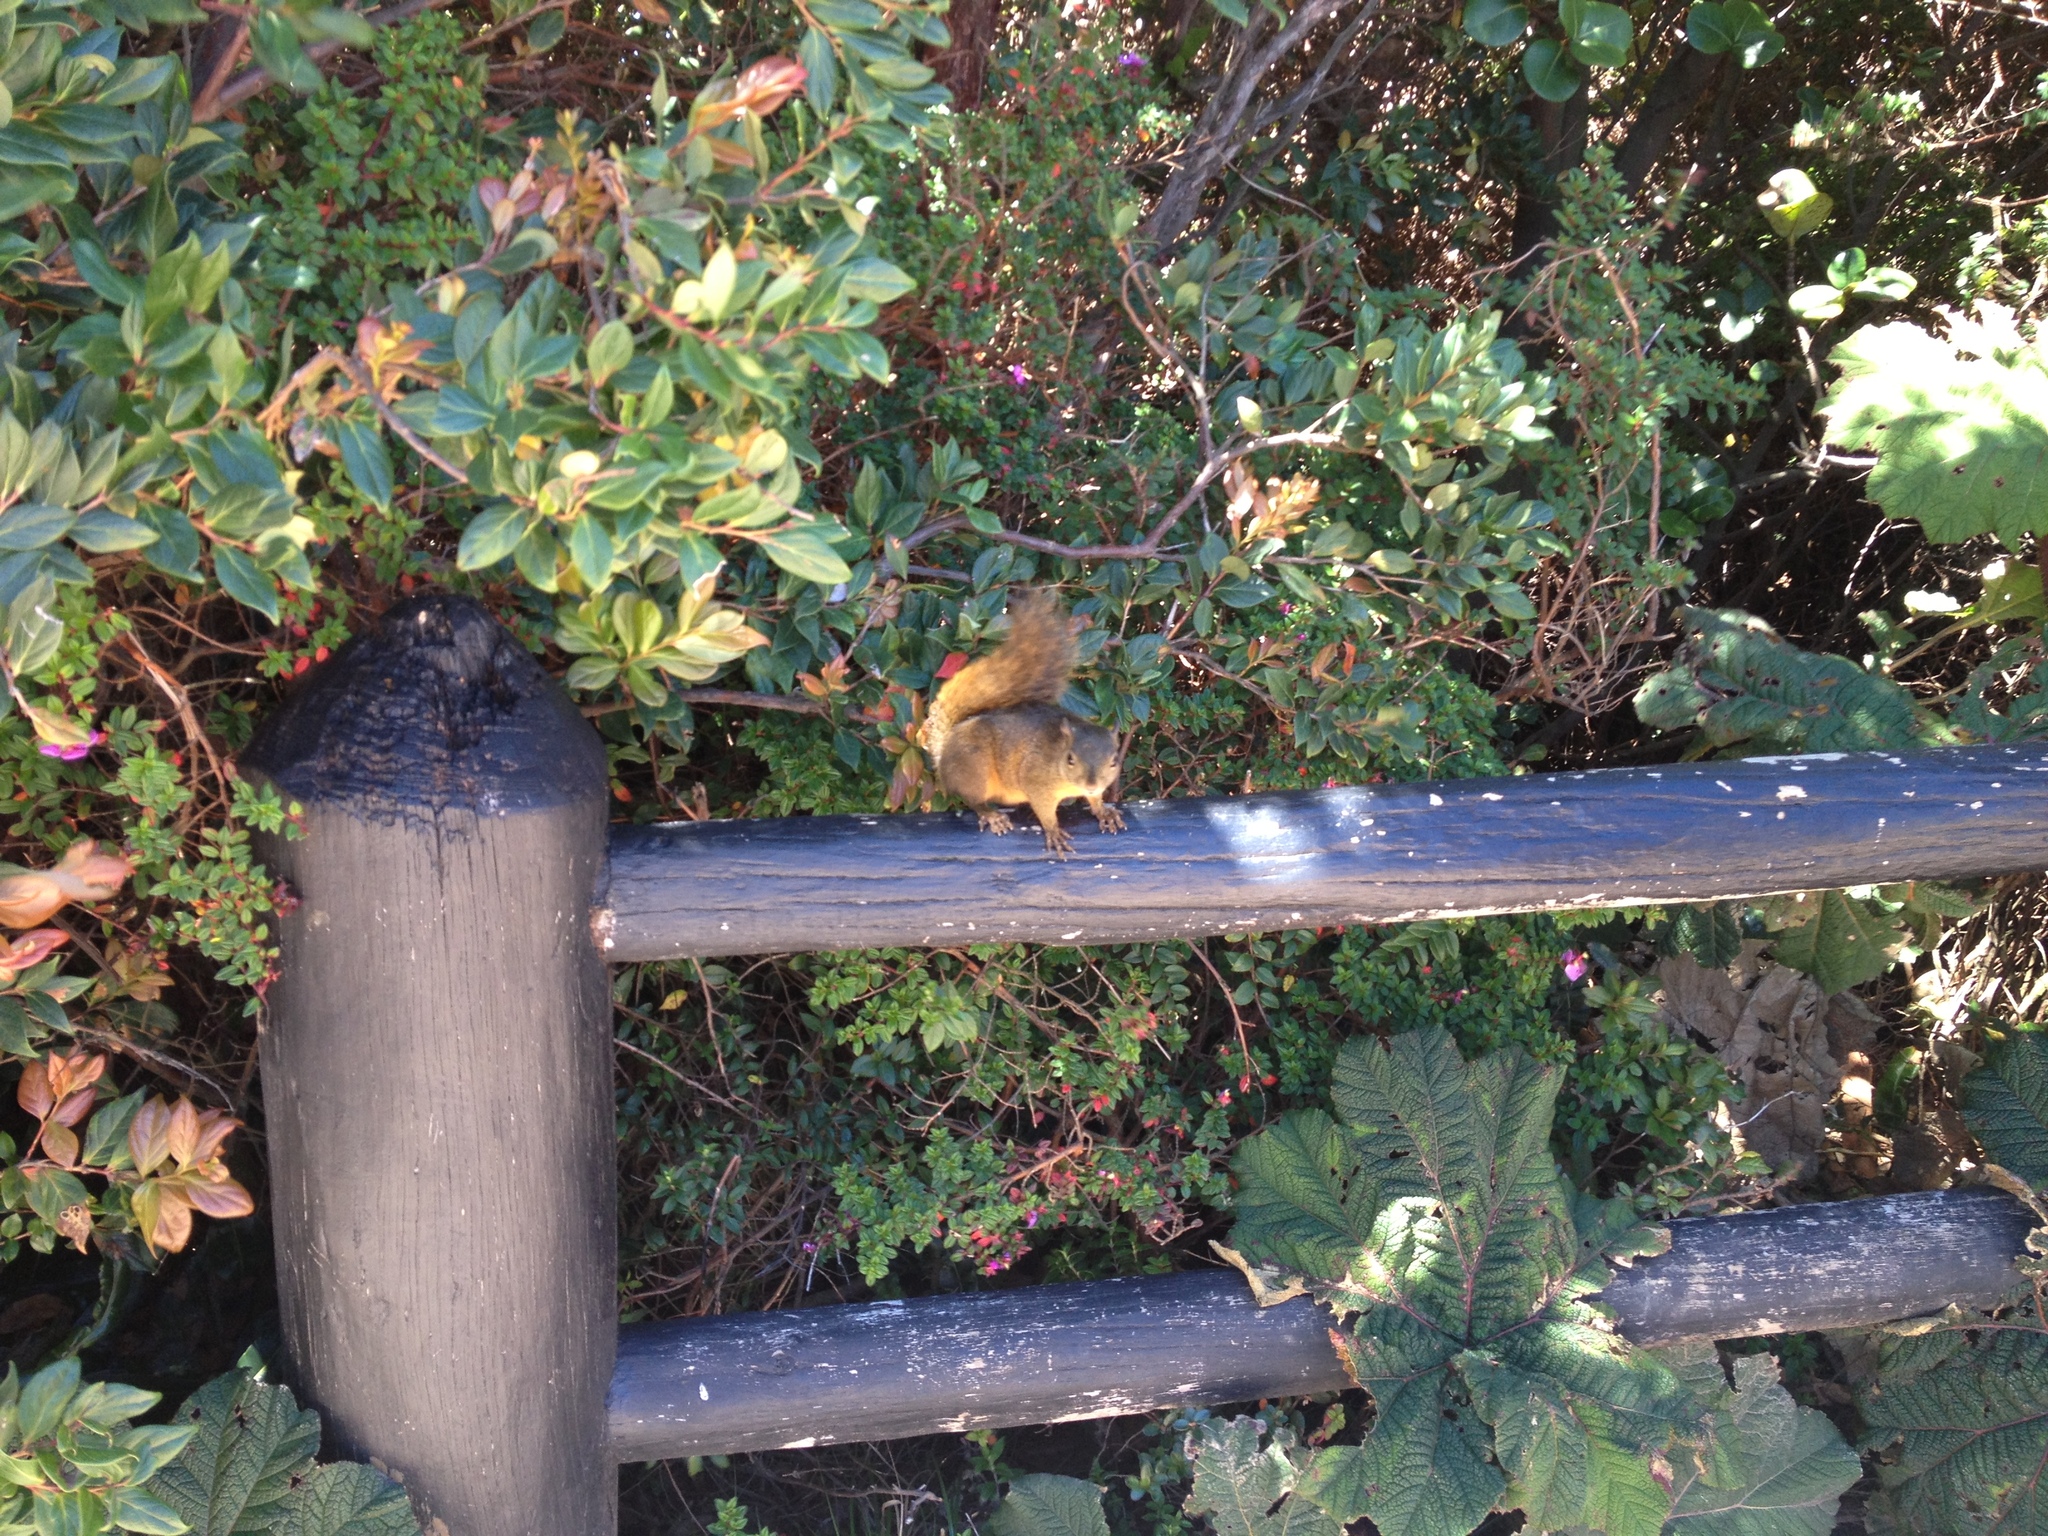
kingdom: Animalia
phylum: Chordata
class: Mammalia
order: Rodentia
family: Sciuridae
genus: Sciurus
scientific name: Sciurus granatensis
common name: Red-tailed squirrel
